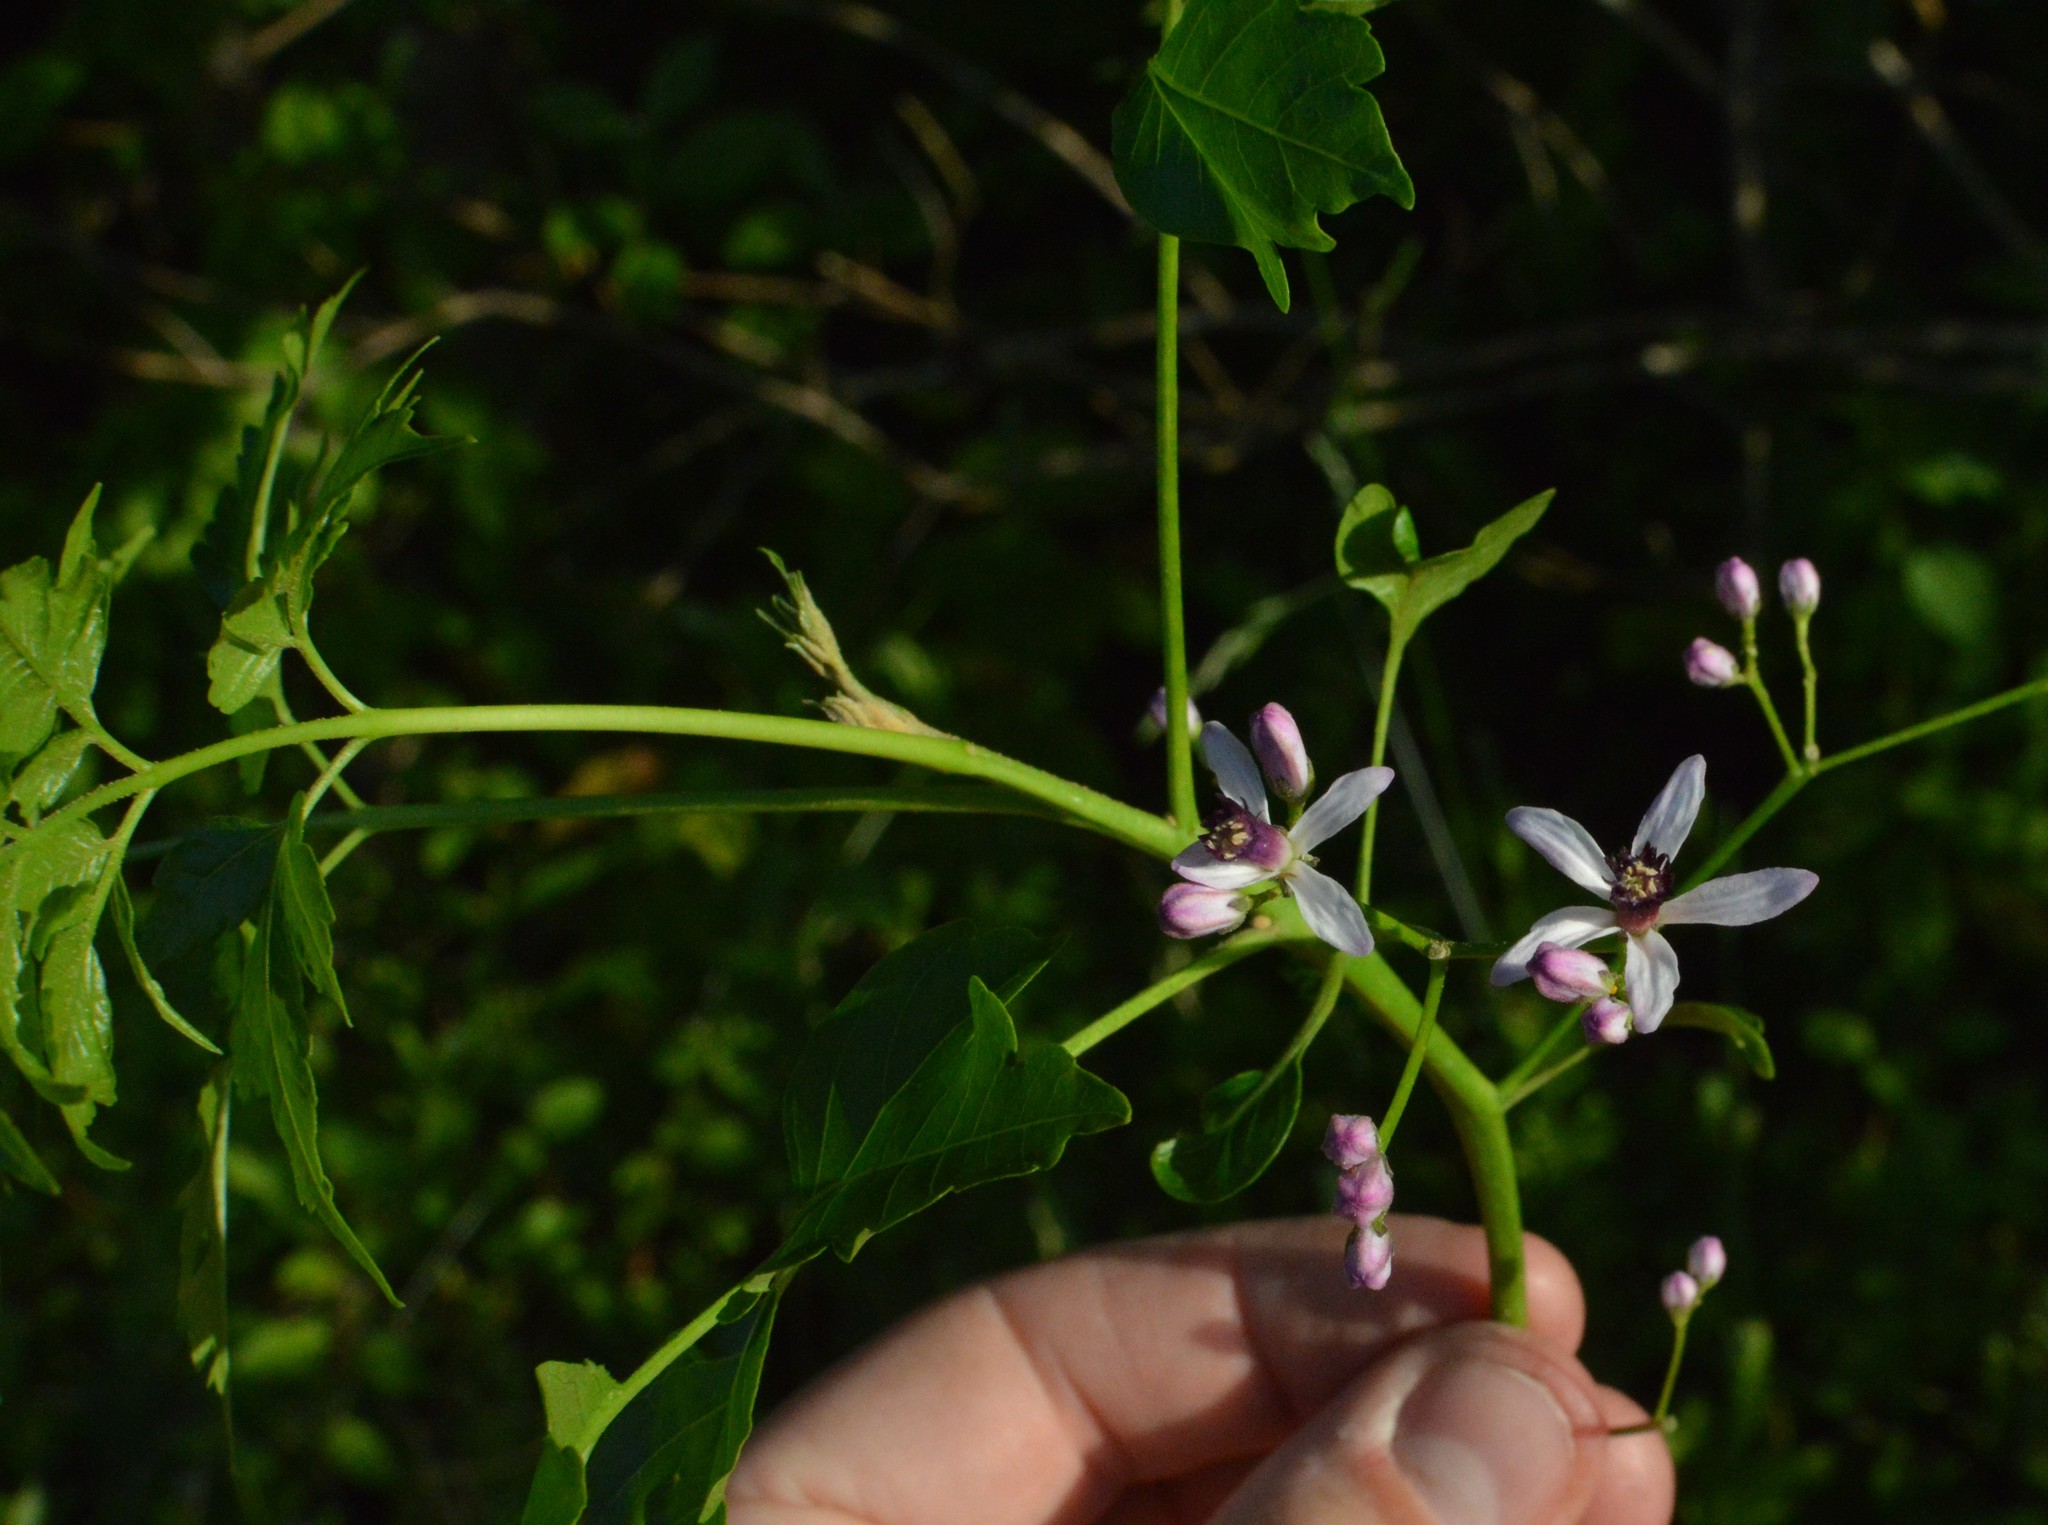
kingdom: Plantae
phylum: Tracheophyta
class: Magnoliopsida
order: Sapindales
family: Meliaceae
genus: Melia
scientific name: Melia azedarach
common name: Chinaberrytree
